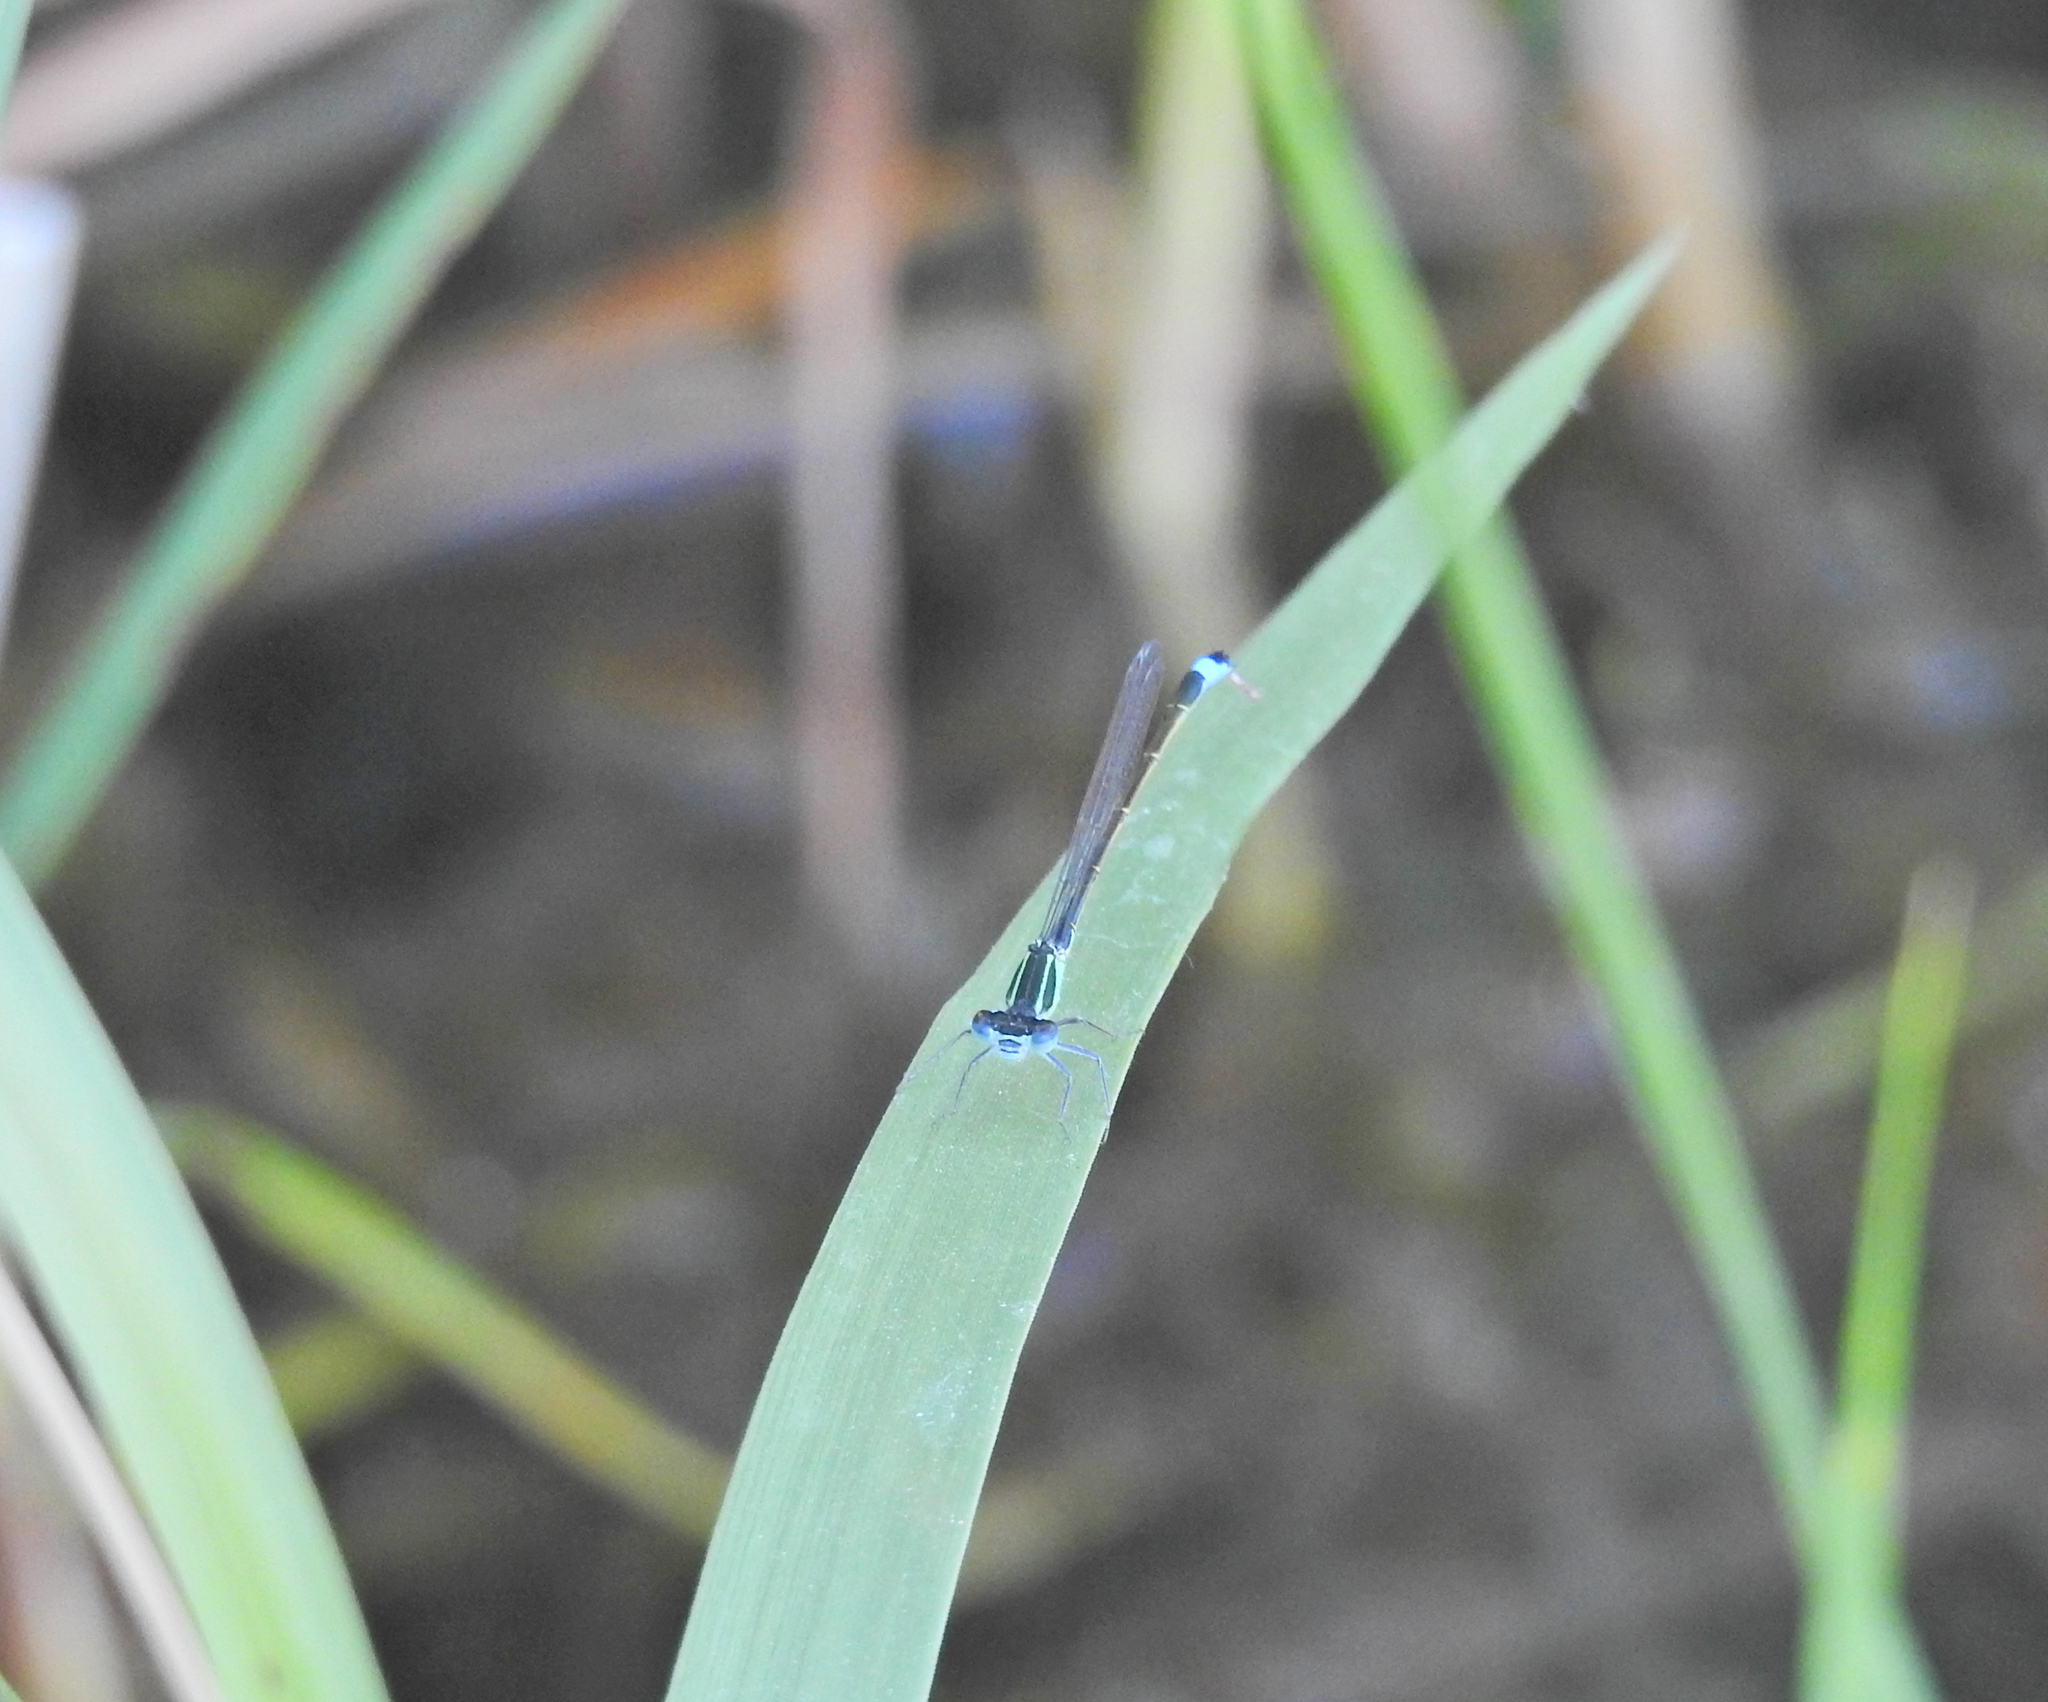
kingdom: Animalia
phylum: Arthropoda
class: Insecta
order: Odonata
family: Coenagrionidae
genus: Ischnura
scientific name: Ischnura elegans
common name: Blue-tailed damselfly
